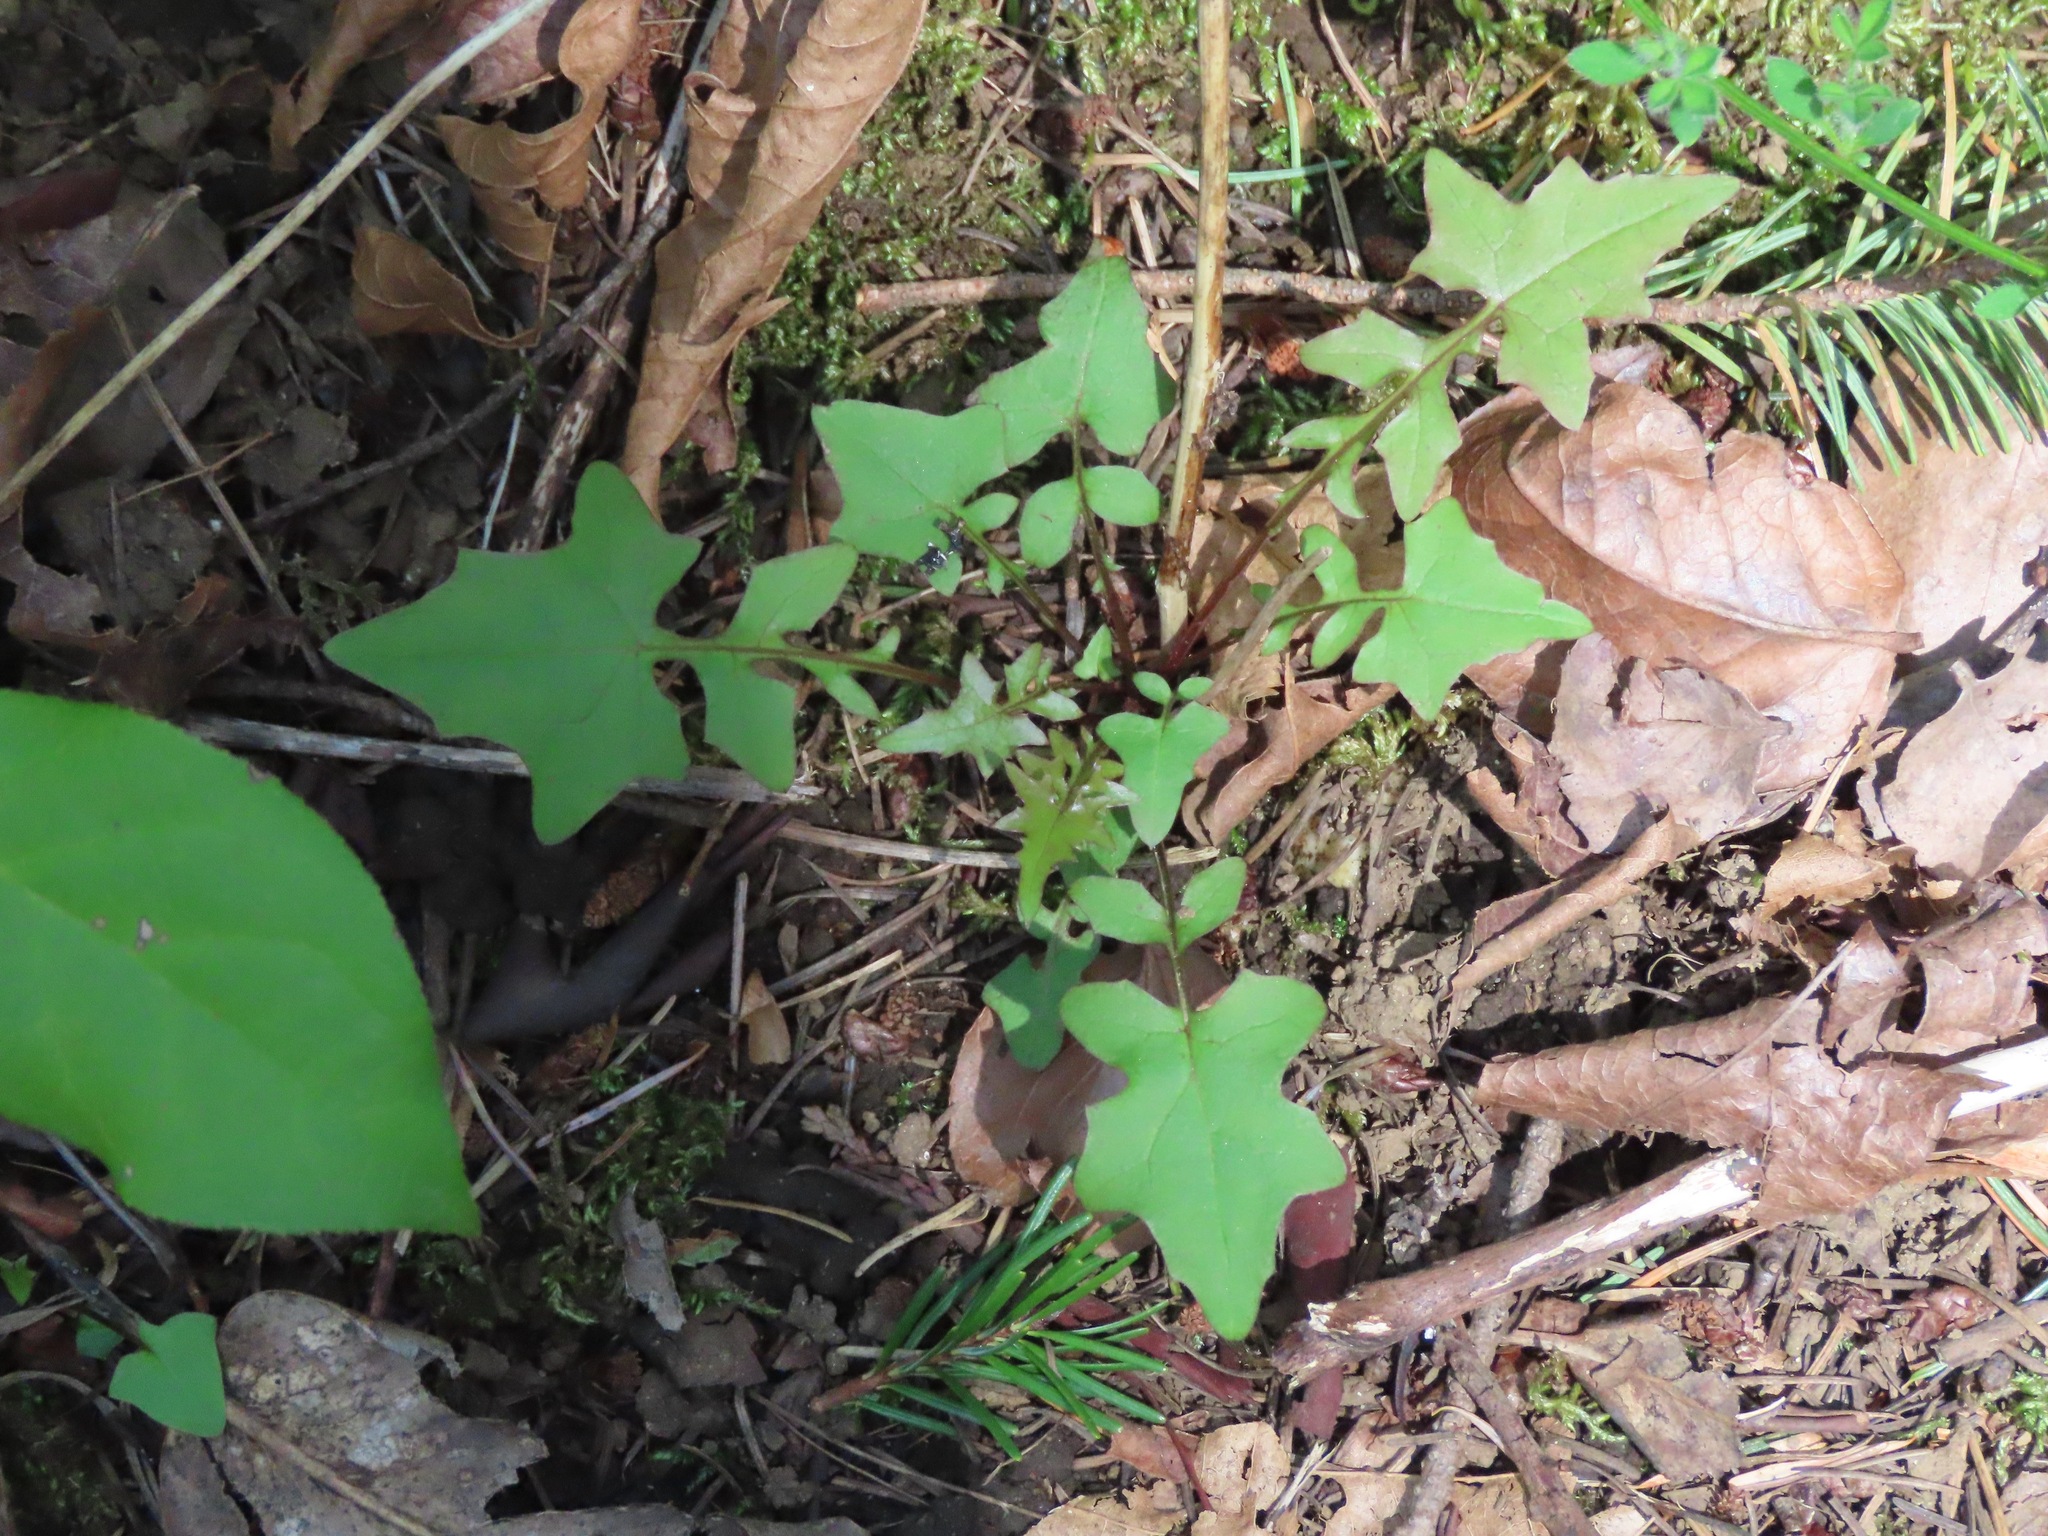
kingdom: Plantae
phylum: Tracheophyta
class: Magnoliopsida
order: Asterales
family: Asteraceae
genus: Mycelis
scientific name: Mycelis muralis
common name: Wall lettuce
